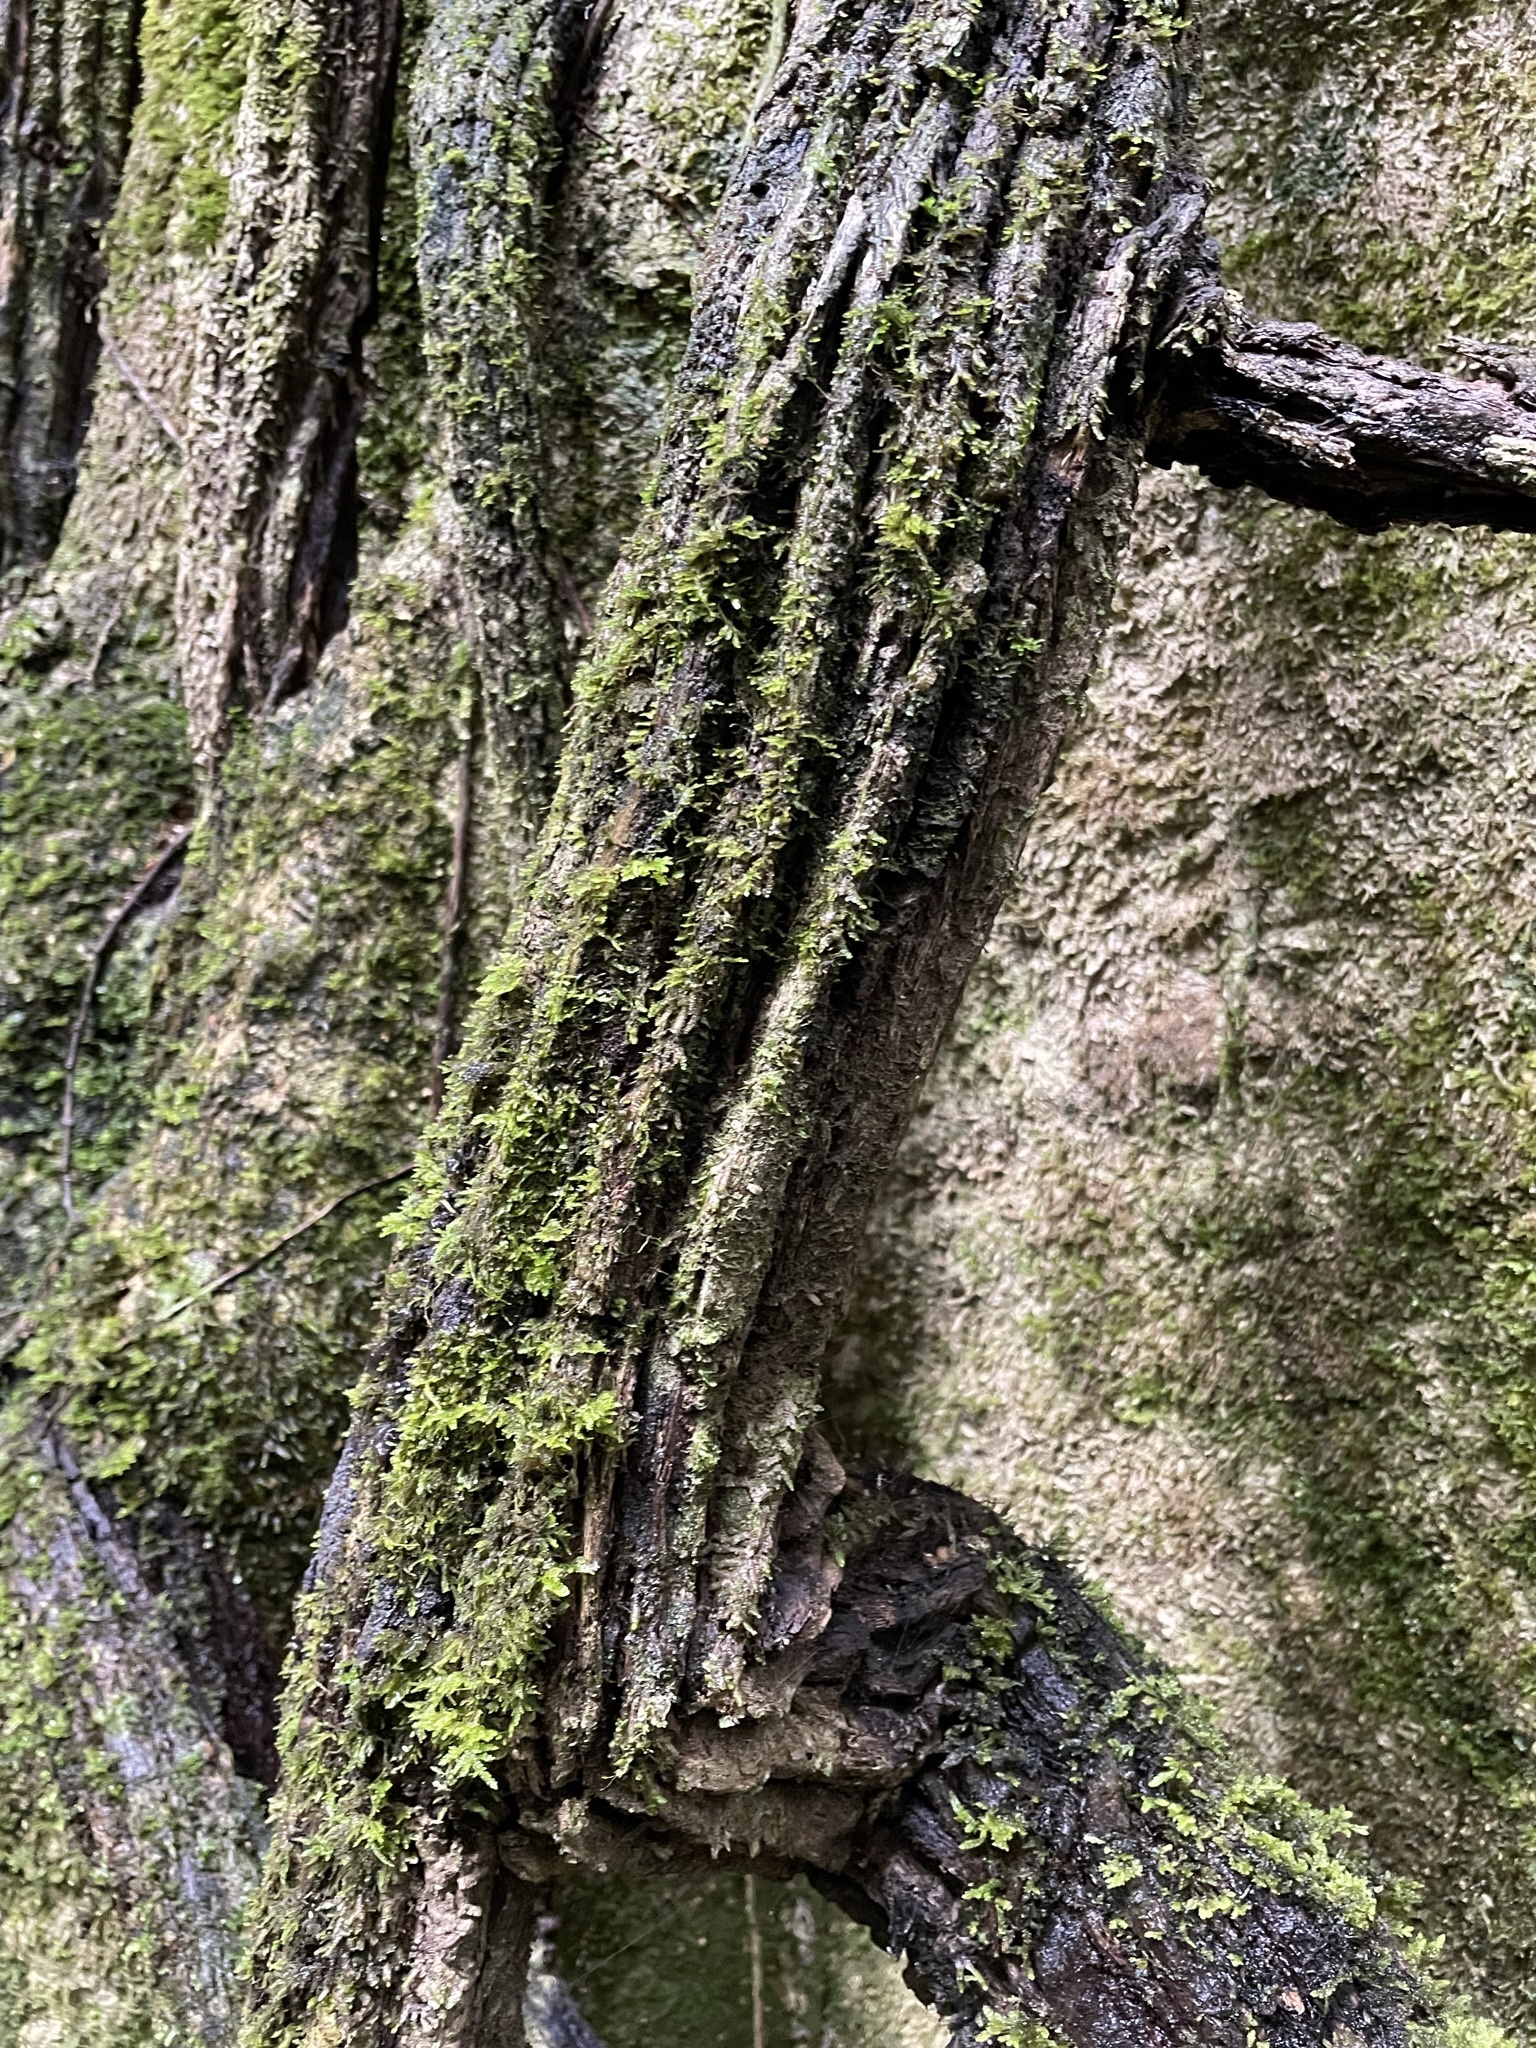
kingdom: Plantae
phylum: Tracheophyta
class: Magnoliopsida
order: Apiales
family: Griseliniaceae
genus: Griselinia
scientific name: Griselinia lucida
